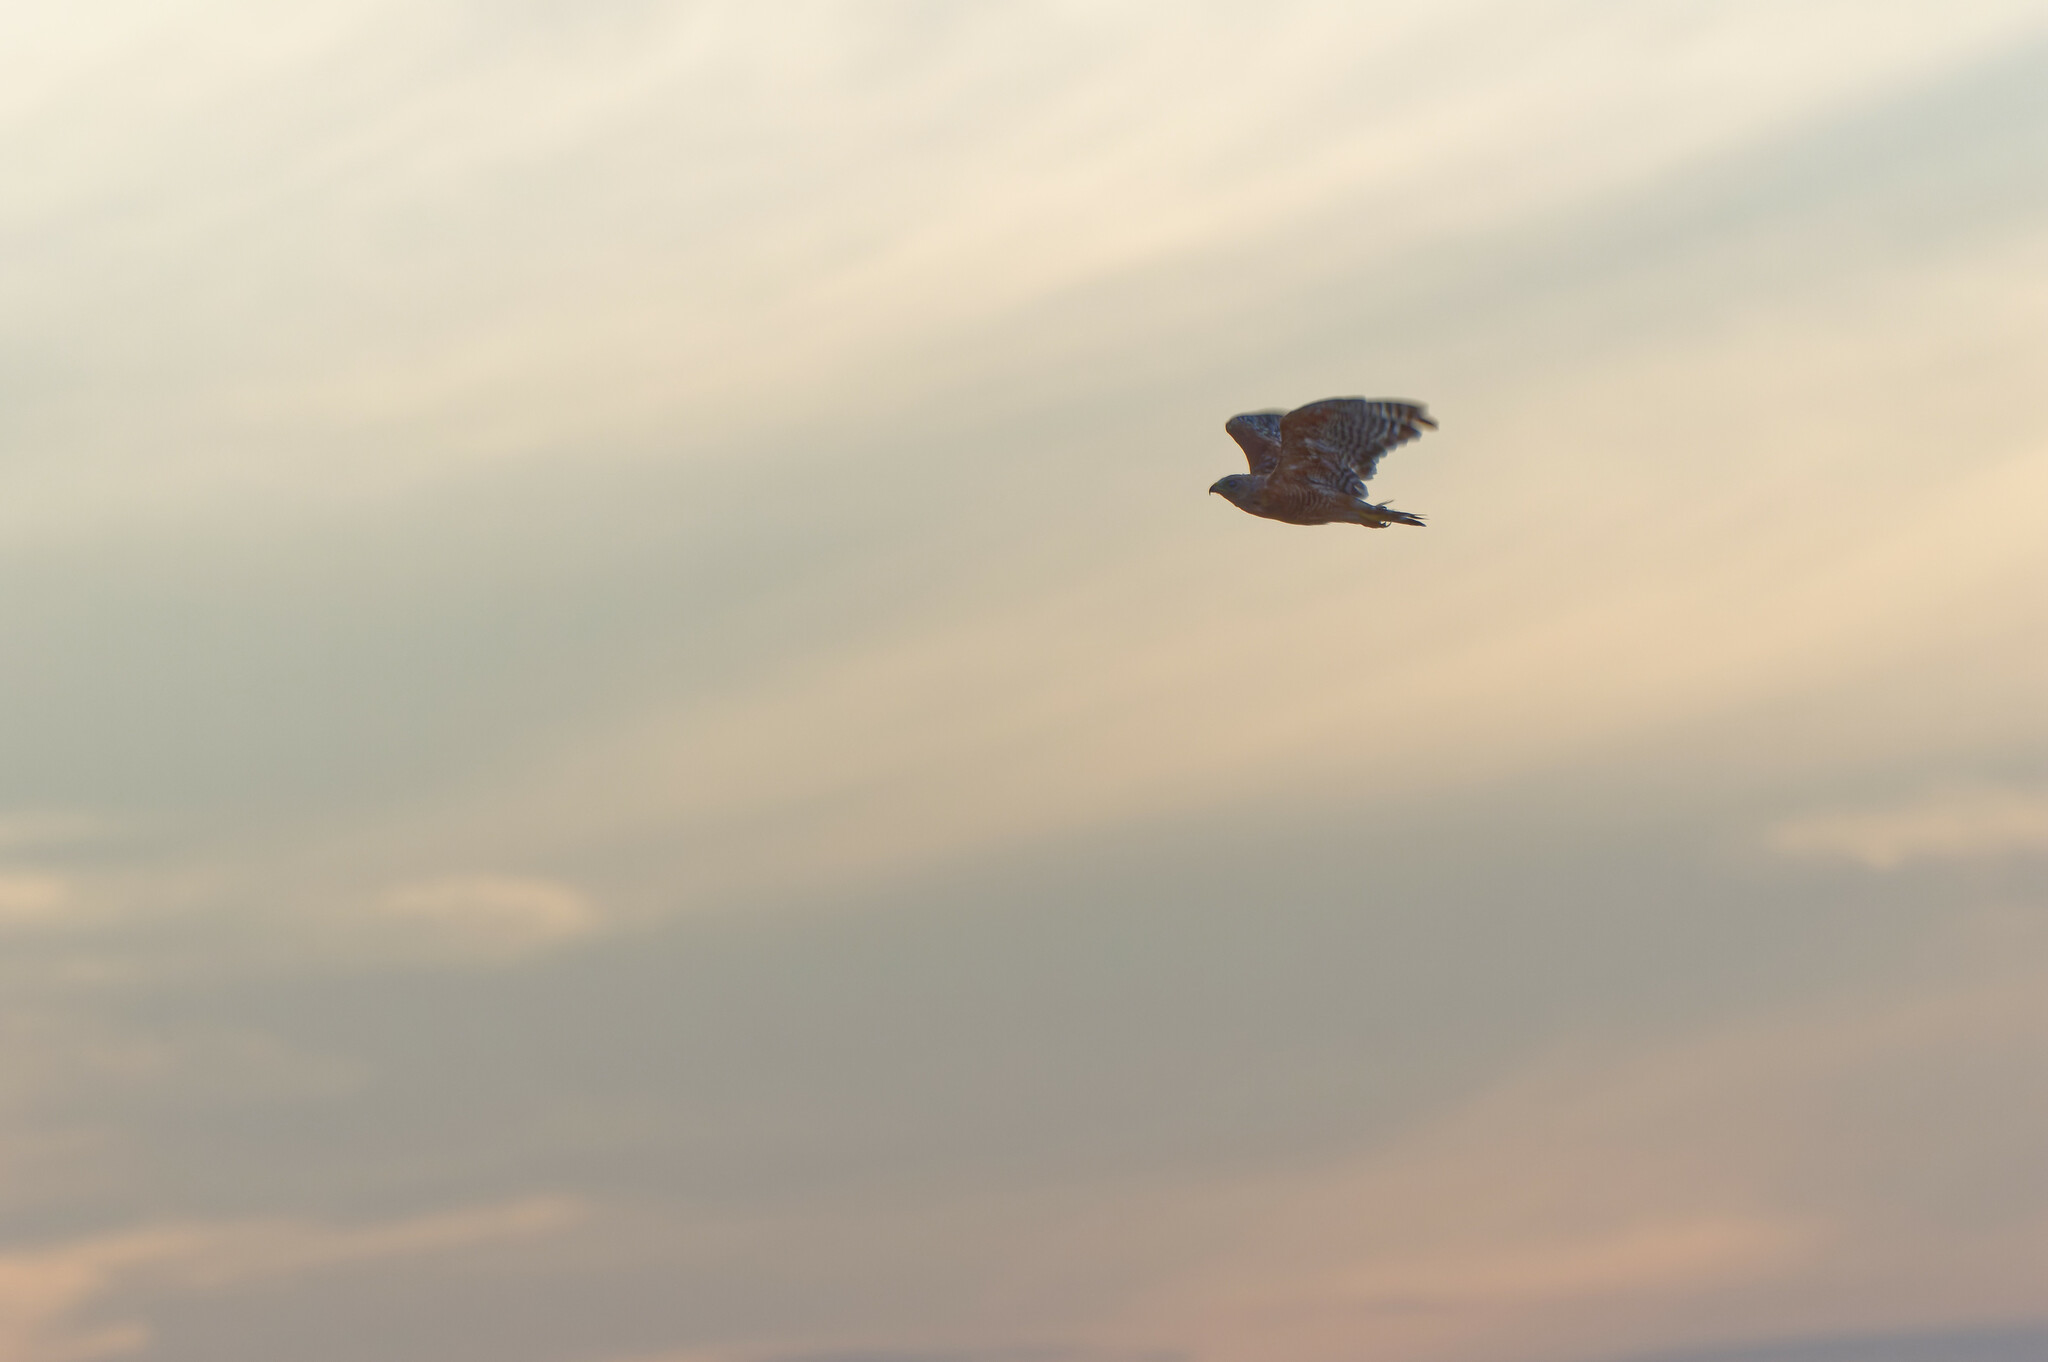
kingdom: Animalia
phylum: Chordata
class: Aves
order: Accipitriformes
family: Accipitridae
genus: Buteo
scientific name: Buteo lineatus
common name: Red-shouldered hawk
